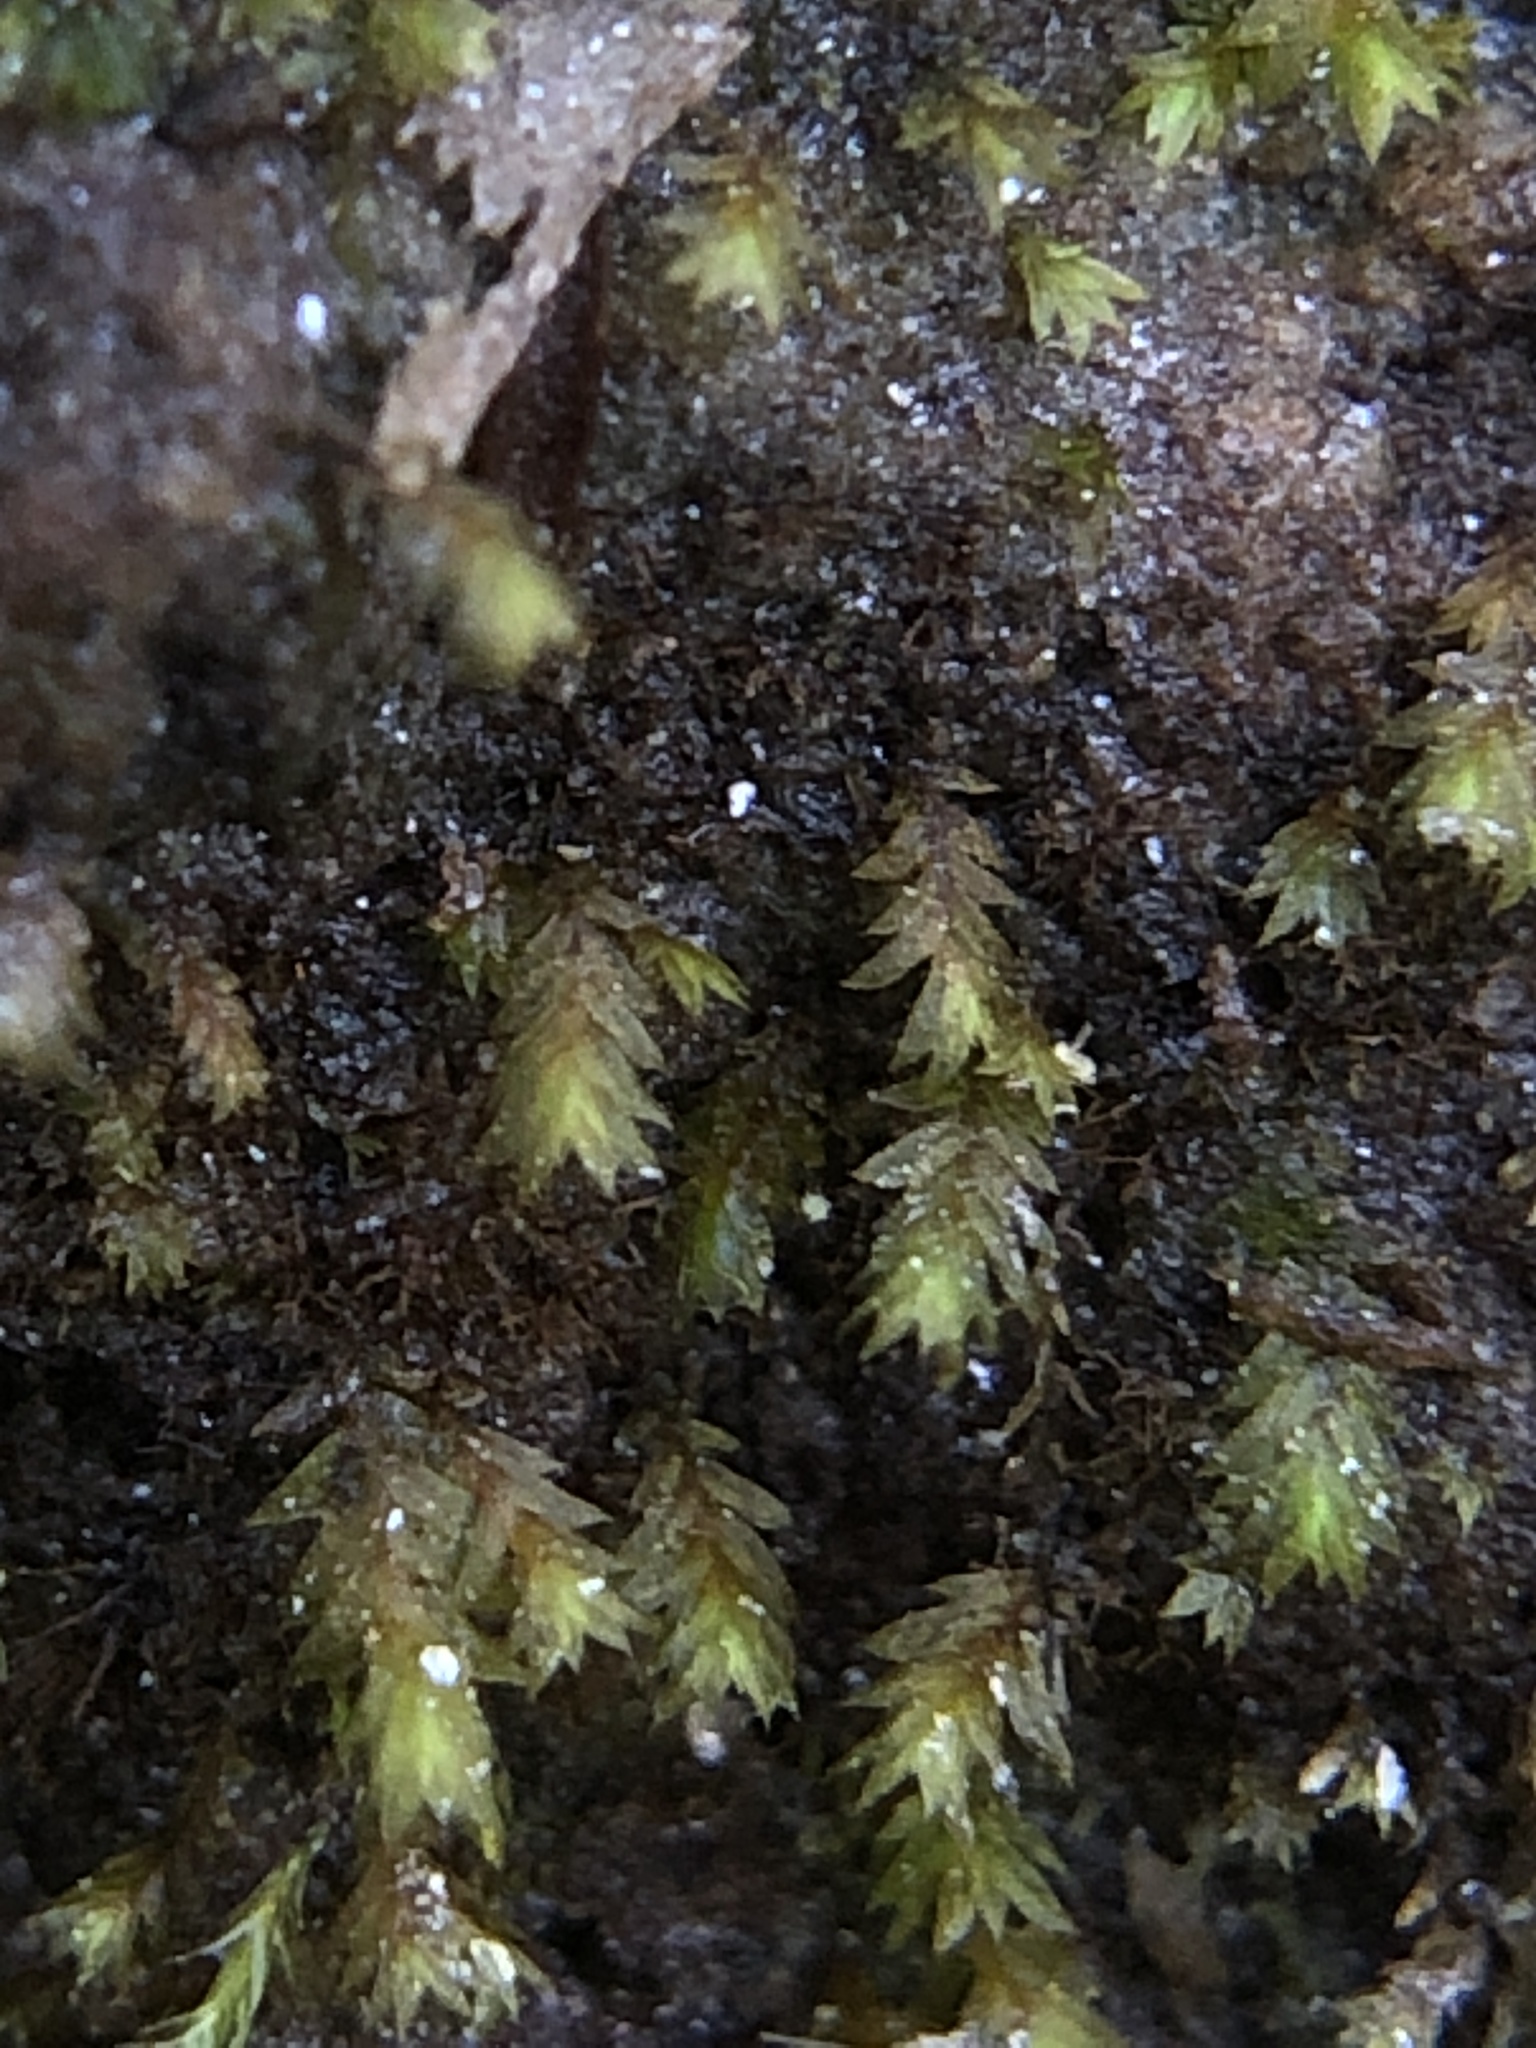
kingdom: Plantae
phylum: Bryophyta
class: Bryopsida
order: Dicranales
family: Fissidentaceae
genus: Fissidens
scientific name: Fissidens celticus
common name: Welsh pocket-moss
